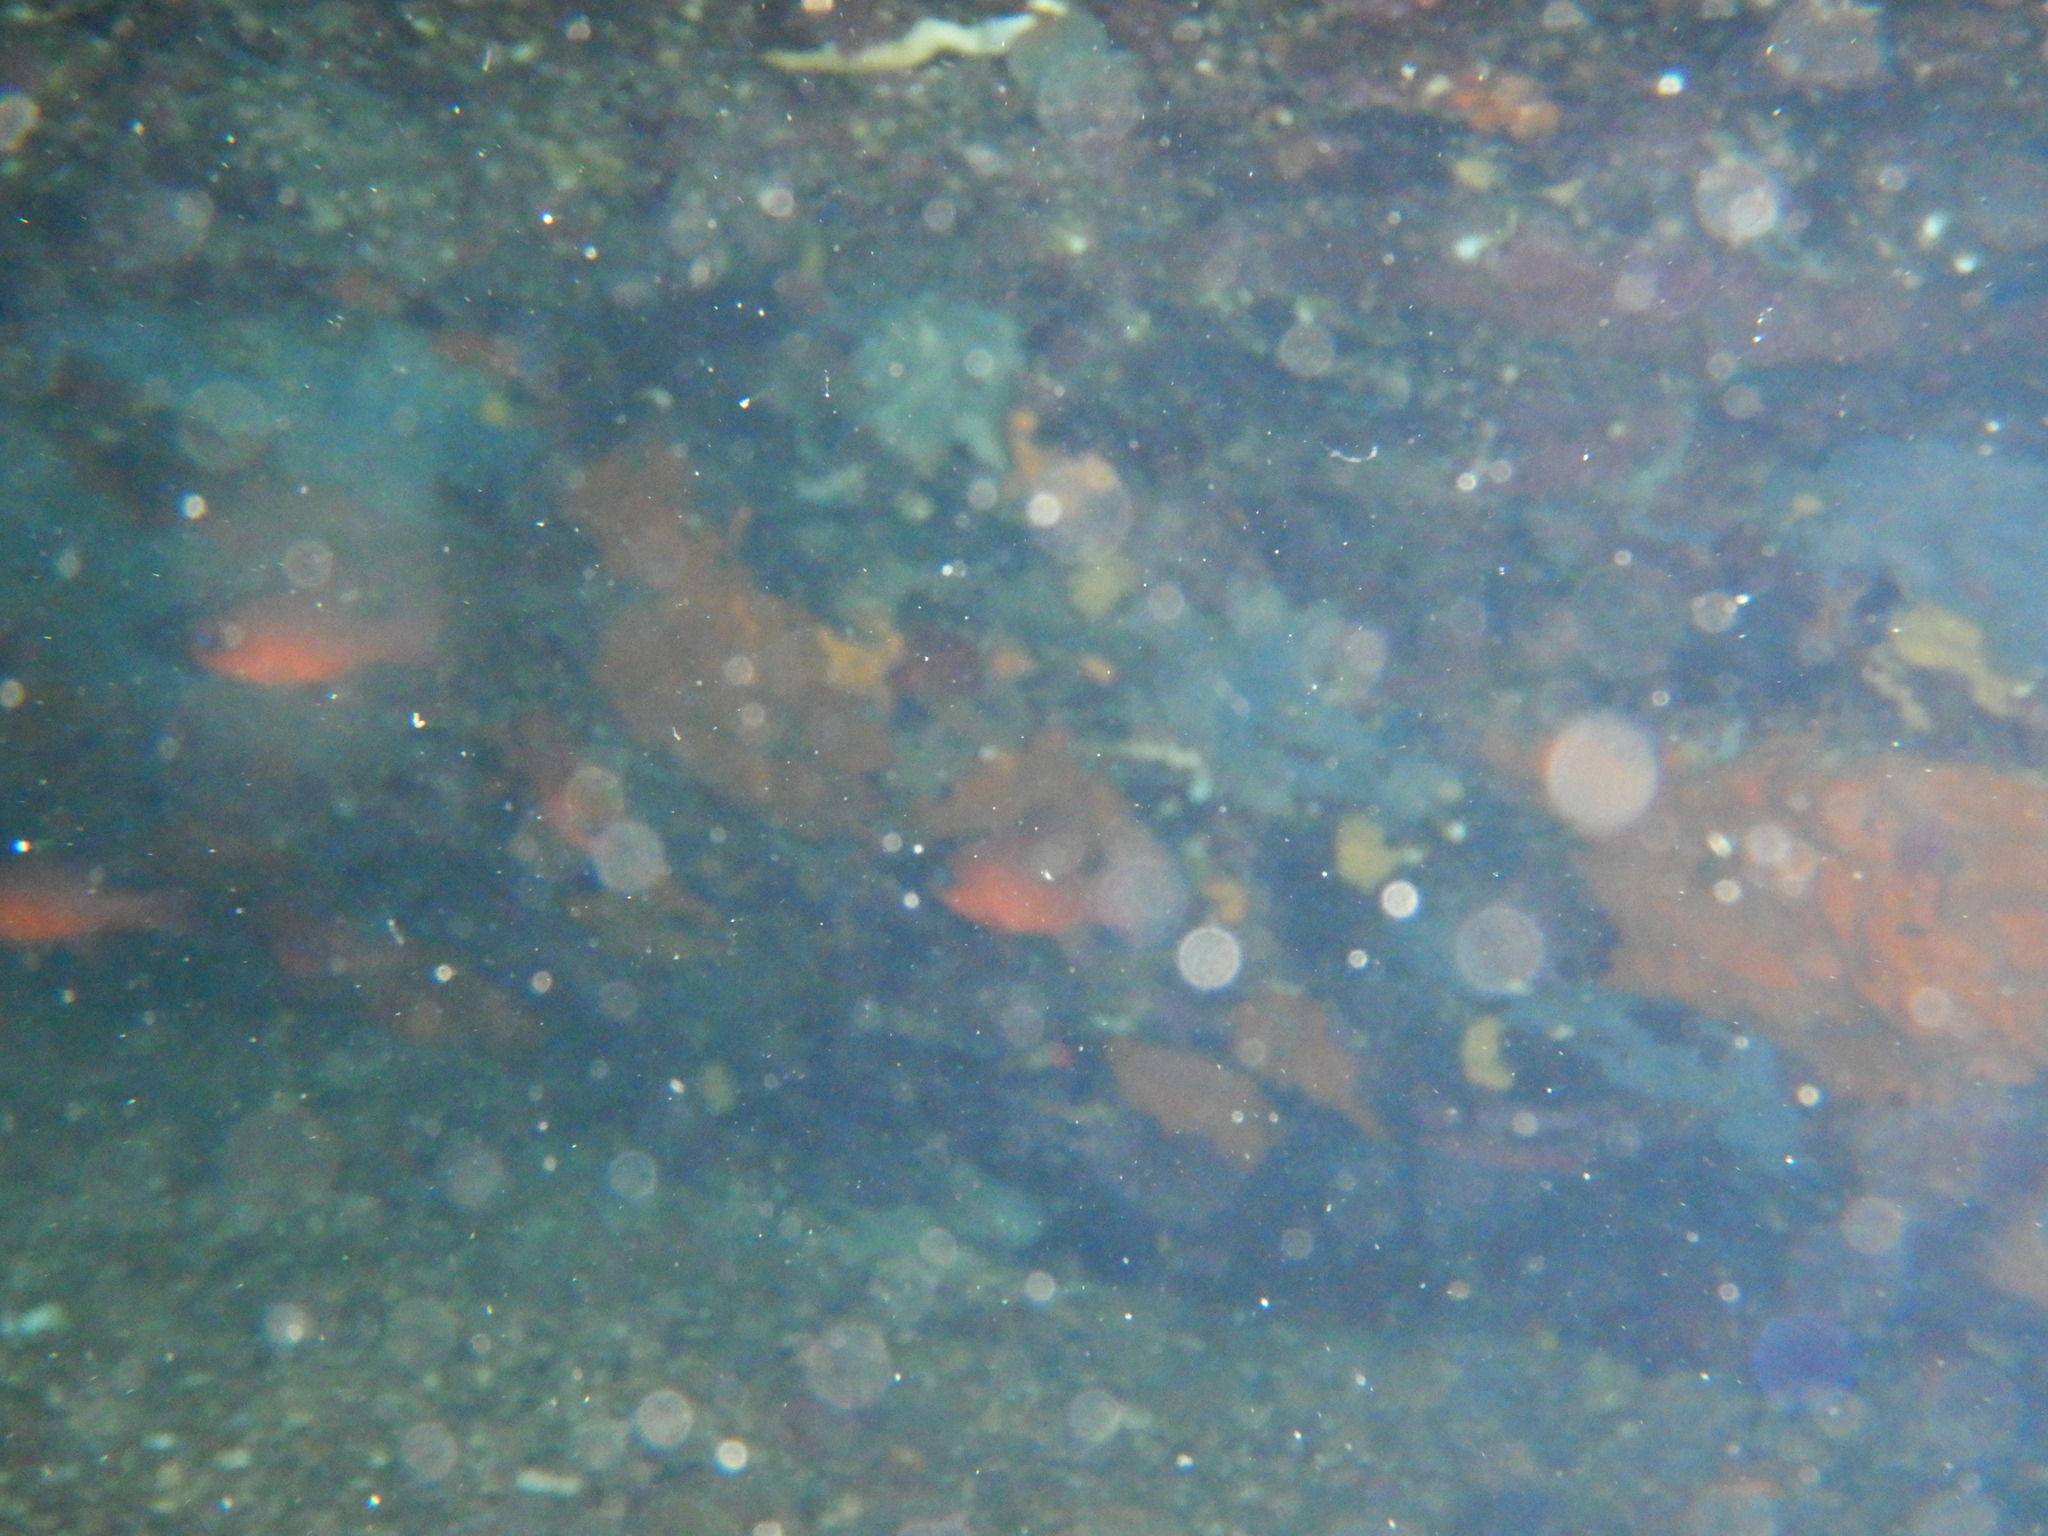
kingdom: Animalia
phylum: Chordata
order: Perciformes
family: Apogonidae
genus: Apogon
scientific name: Apogon imberbis
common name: Cardinal fish
